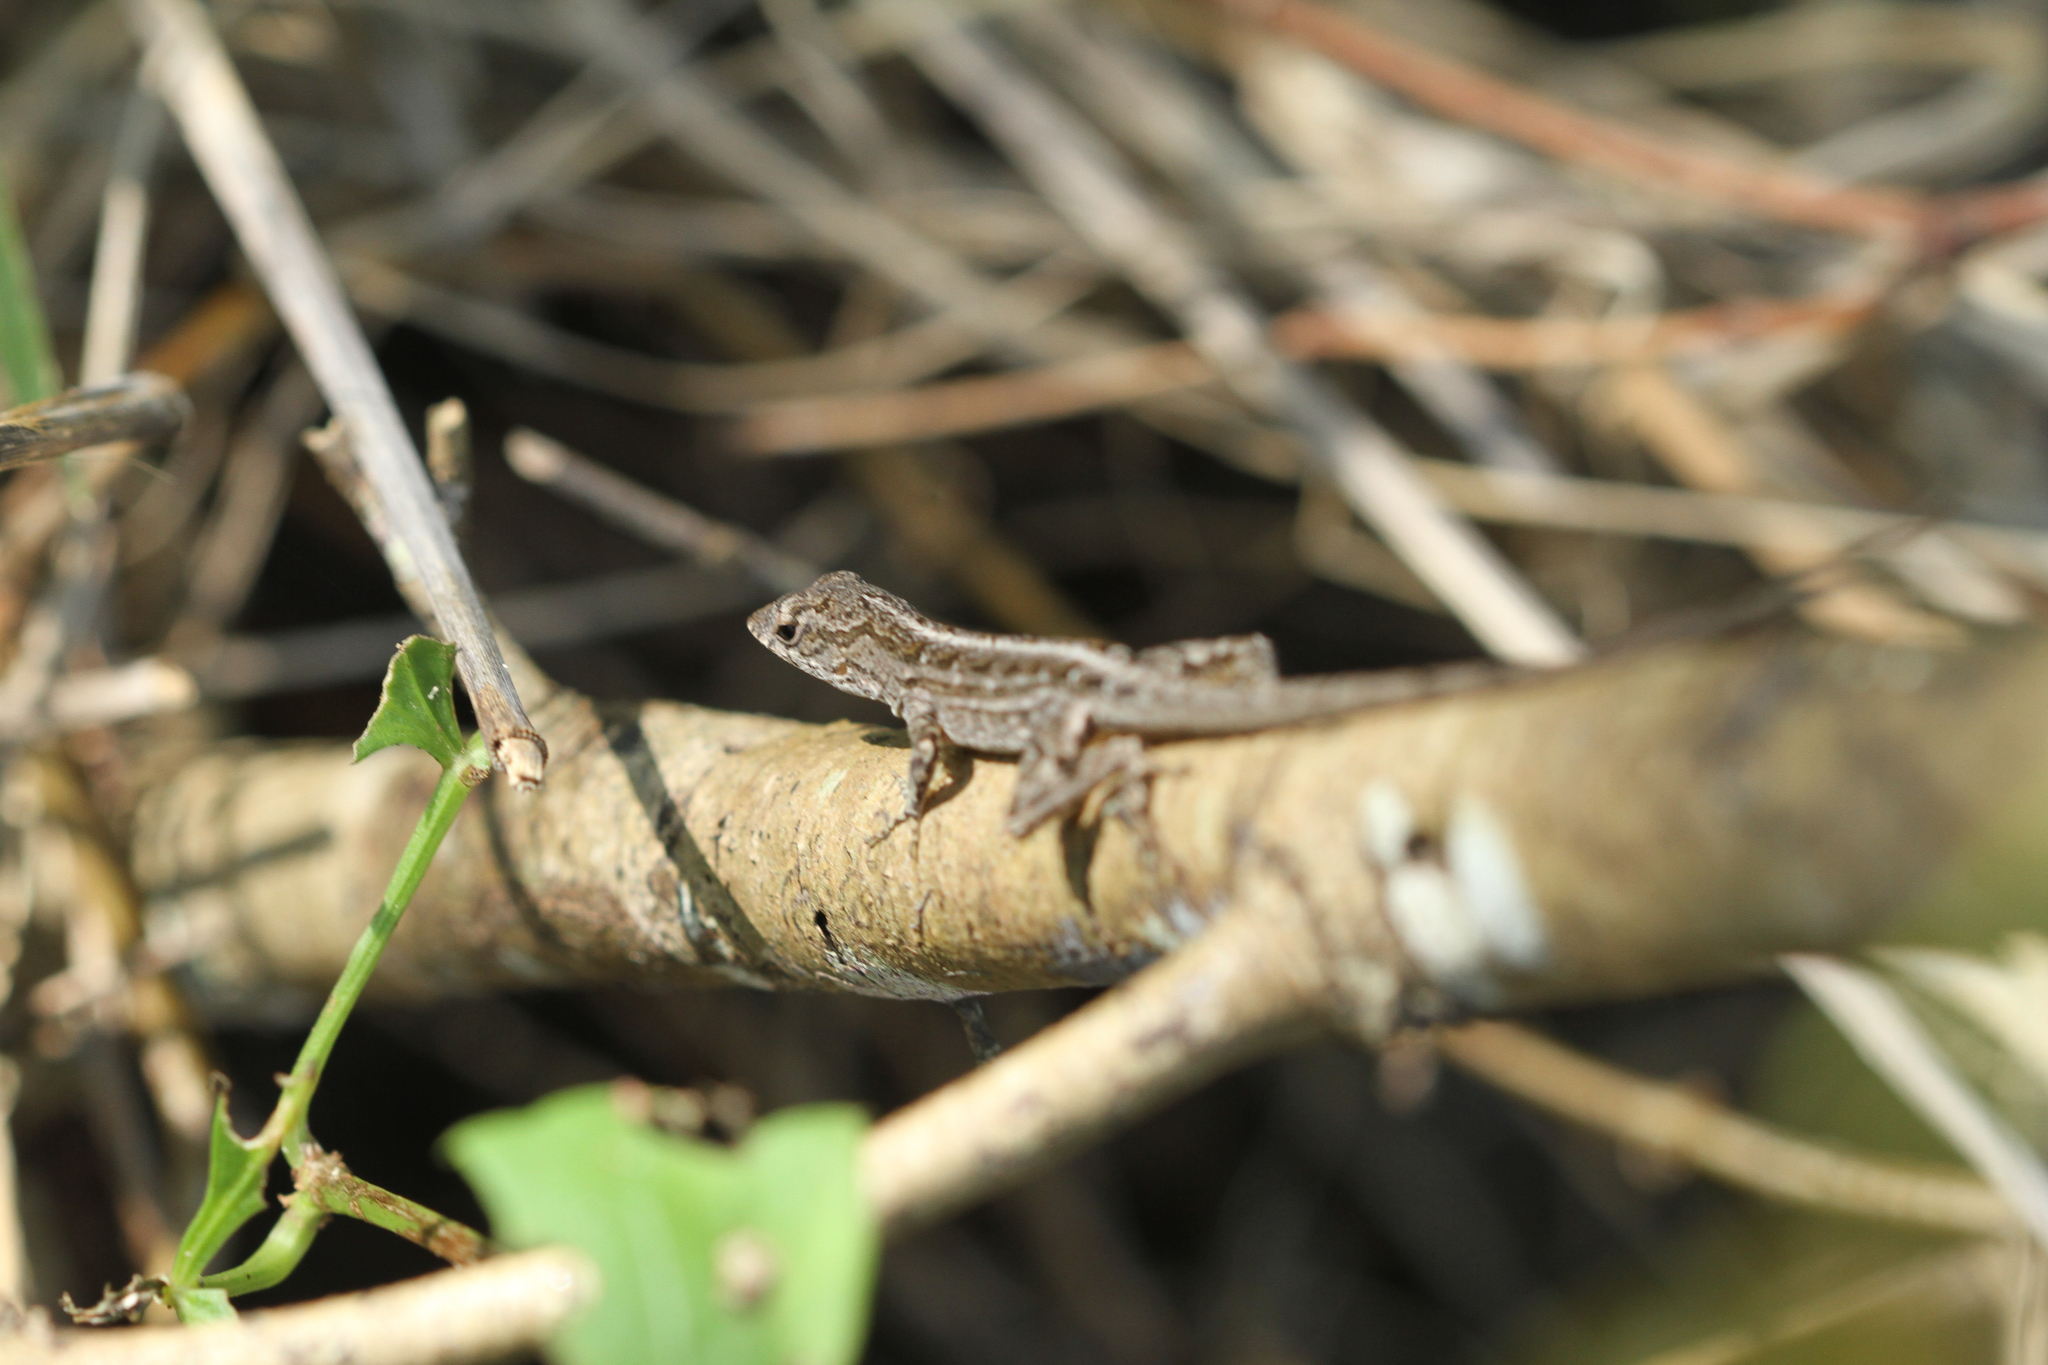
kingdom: Animalia
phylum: Chordata
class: Squamata
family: Dactyloidae
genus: Anolis
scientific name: Anolis sagrei
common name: Brown anole
